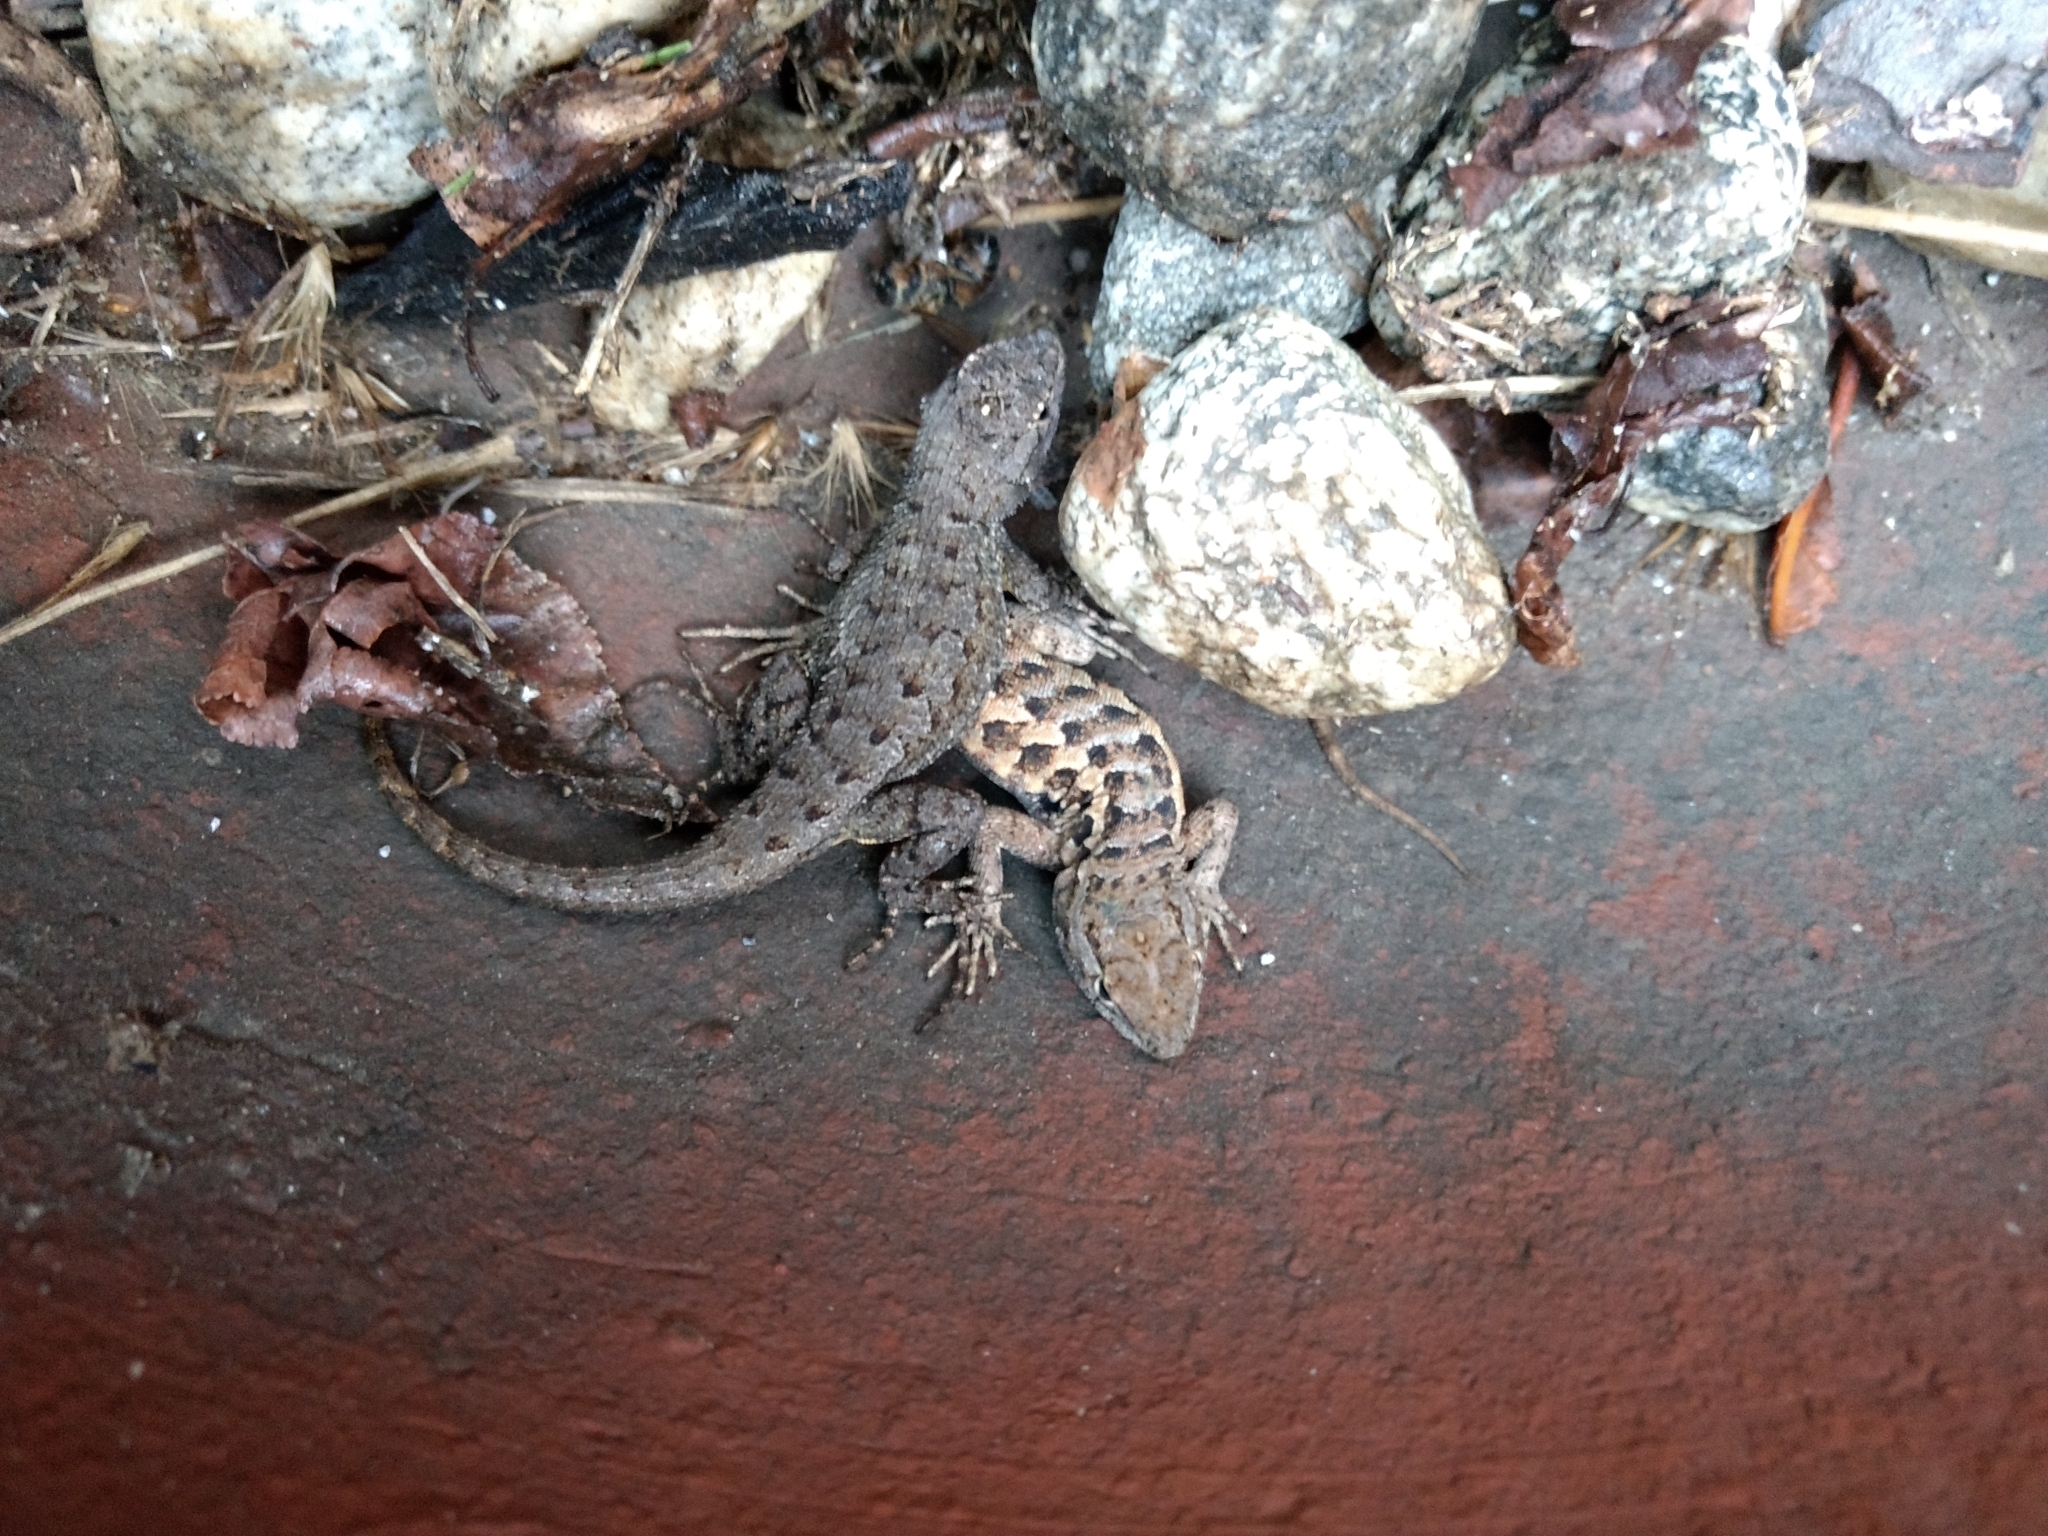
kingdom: Animalia
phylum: Chordata
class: Squamata
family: Phrynosomatidae
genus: Sceloporus
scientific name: Sceloporus occidentalis
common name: Western fence lizard
